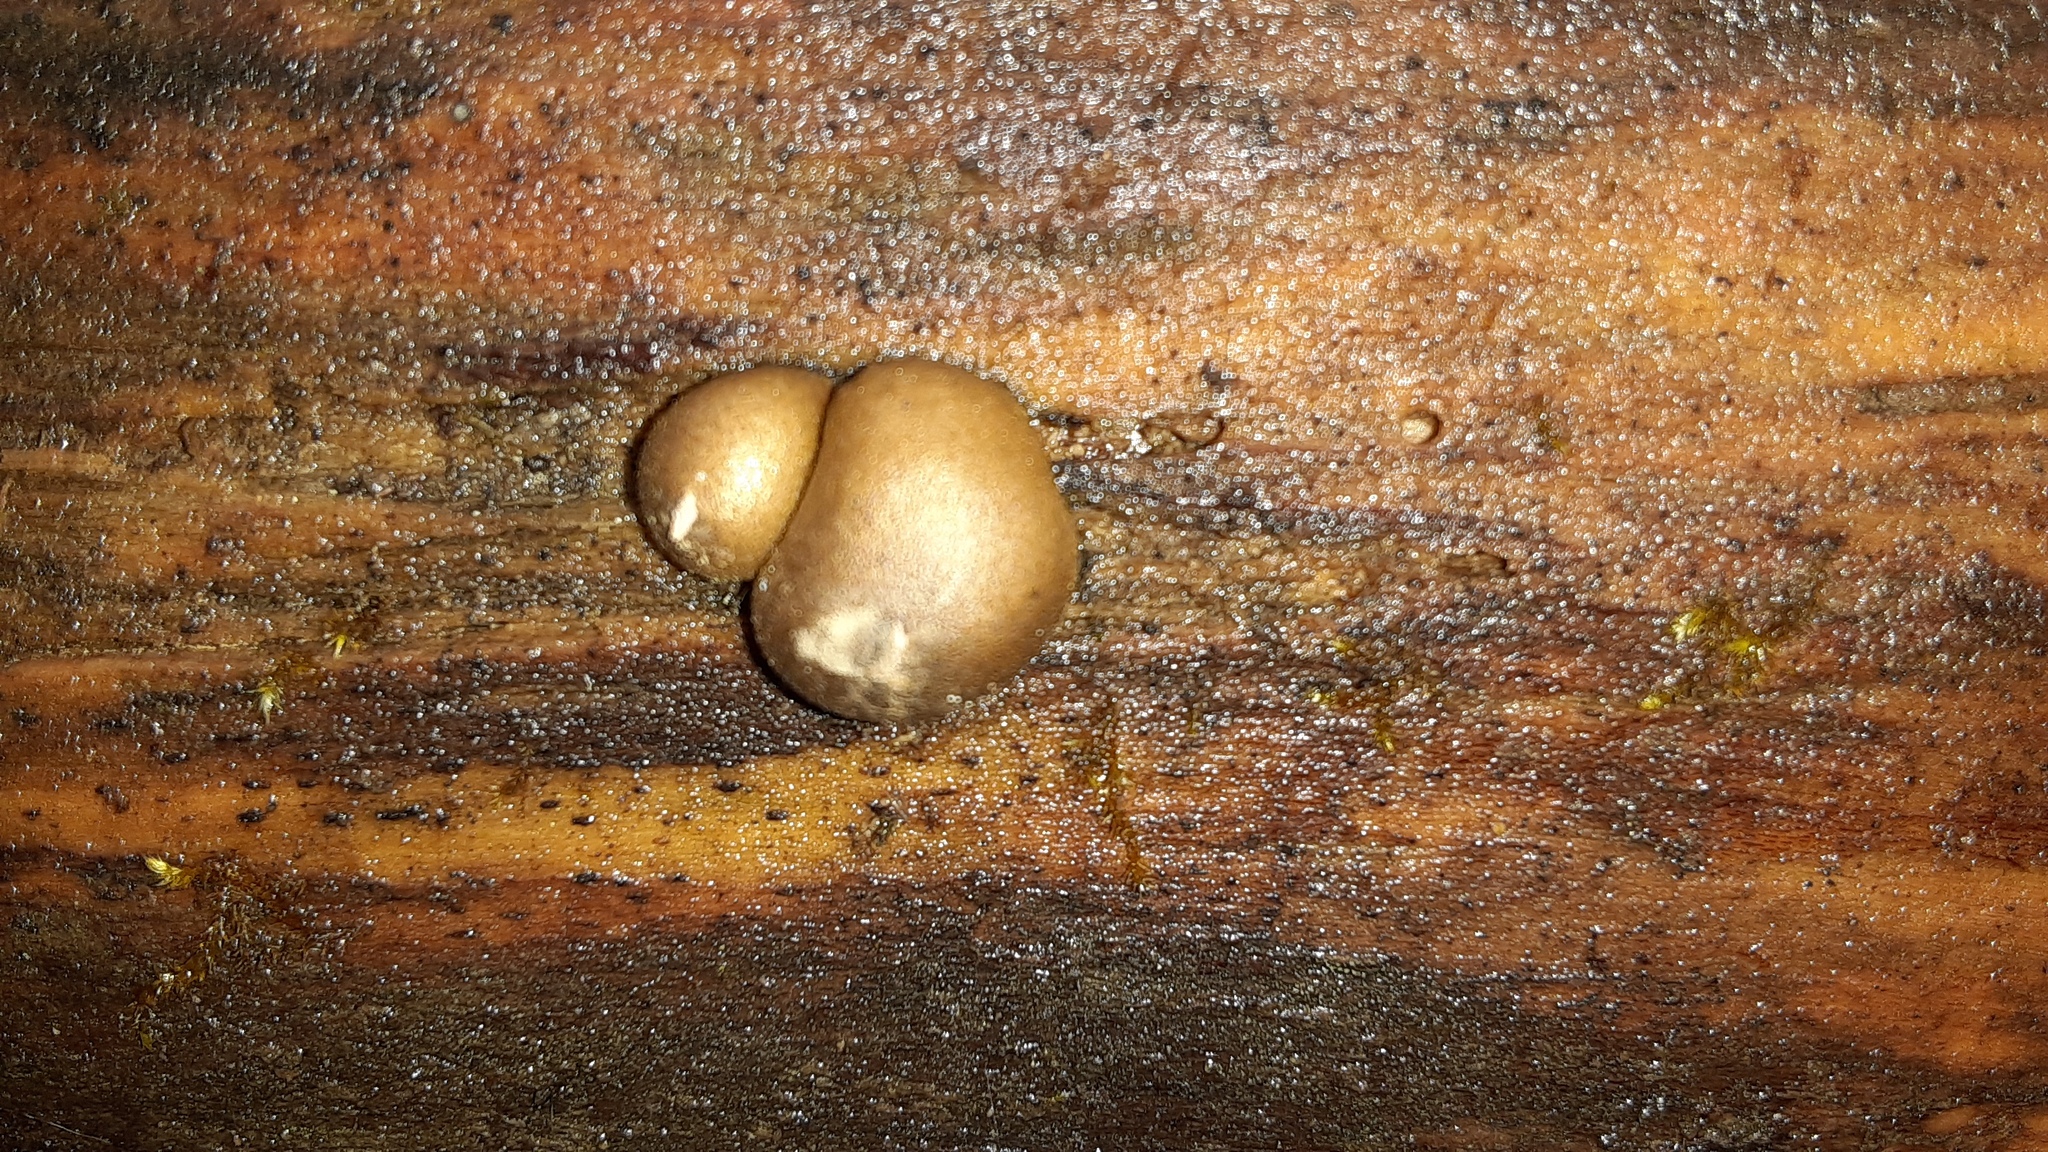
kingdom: Protozoa
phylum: Mycetozoa
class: Myxomycetes
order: Cribrariales
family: Tubiferaceae
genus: Lycogala
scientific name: Lycogala epidendrum
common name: Wolf's milk
